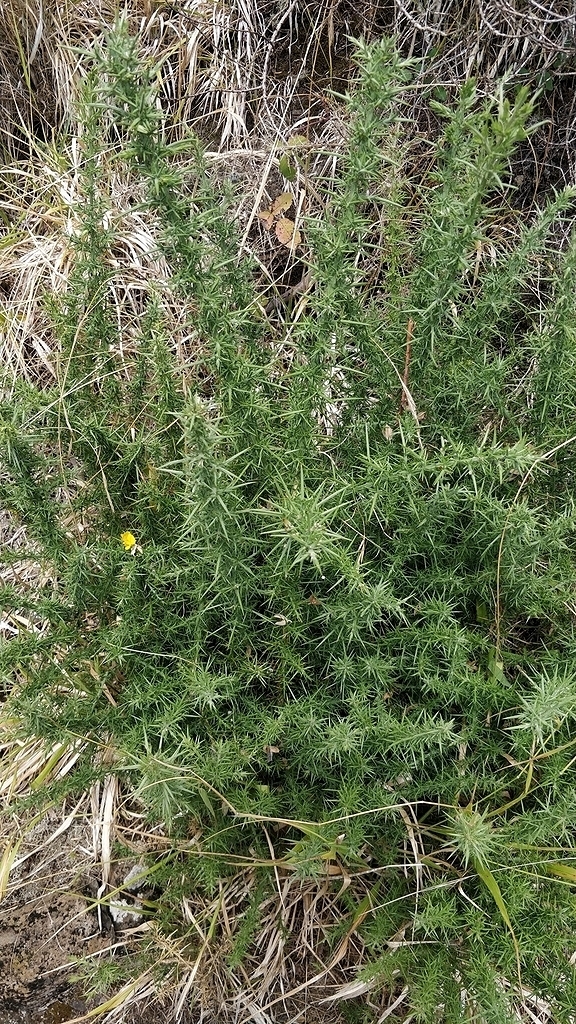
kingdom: Plantae
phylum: Tracheophyta
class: Magnoliopsida
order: Fabales
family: Fabaceae
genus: Ulex
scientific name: Ulex europaeus
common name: Common gorse
